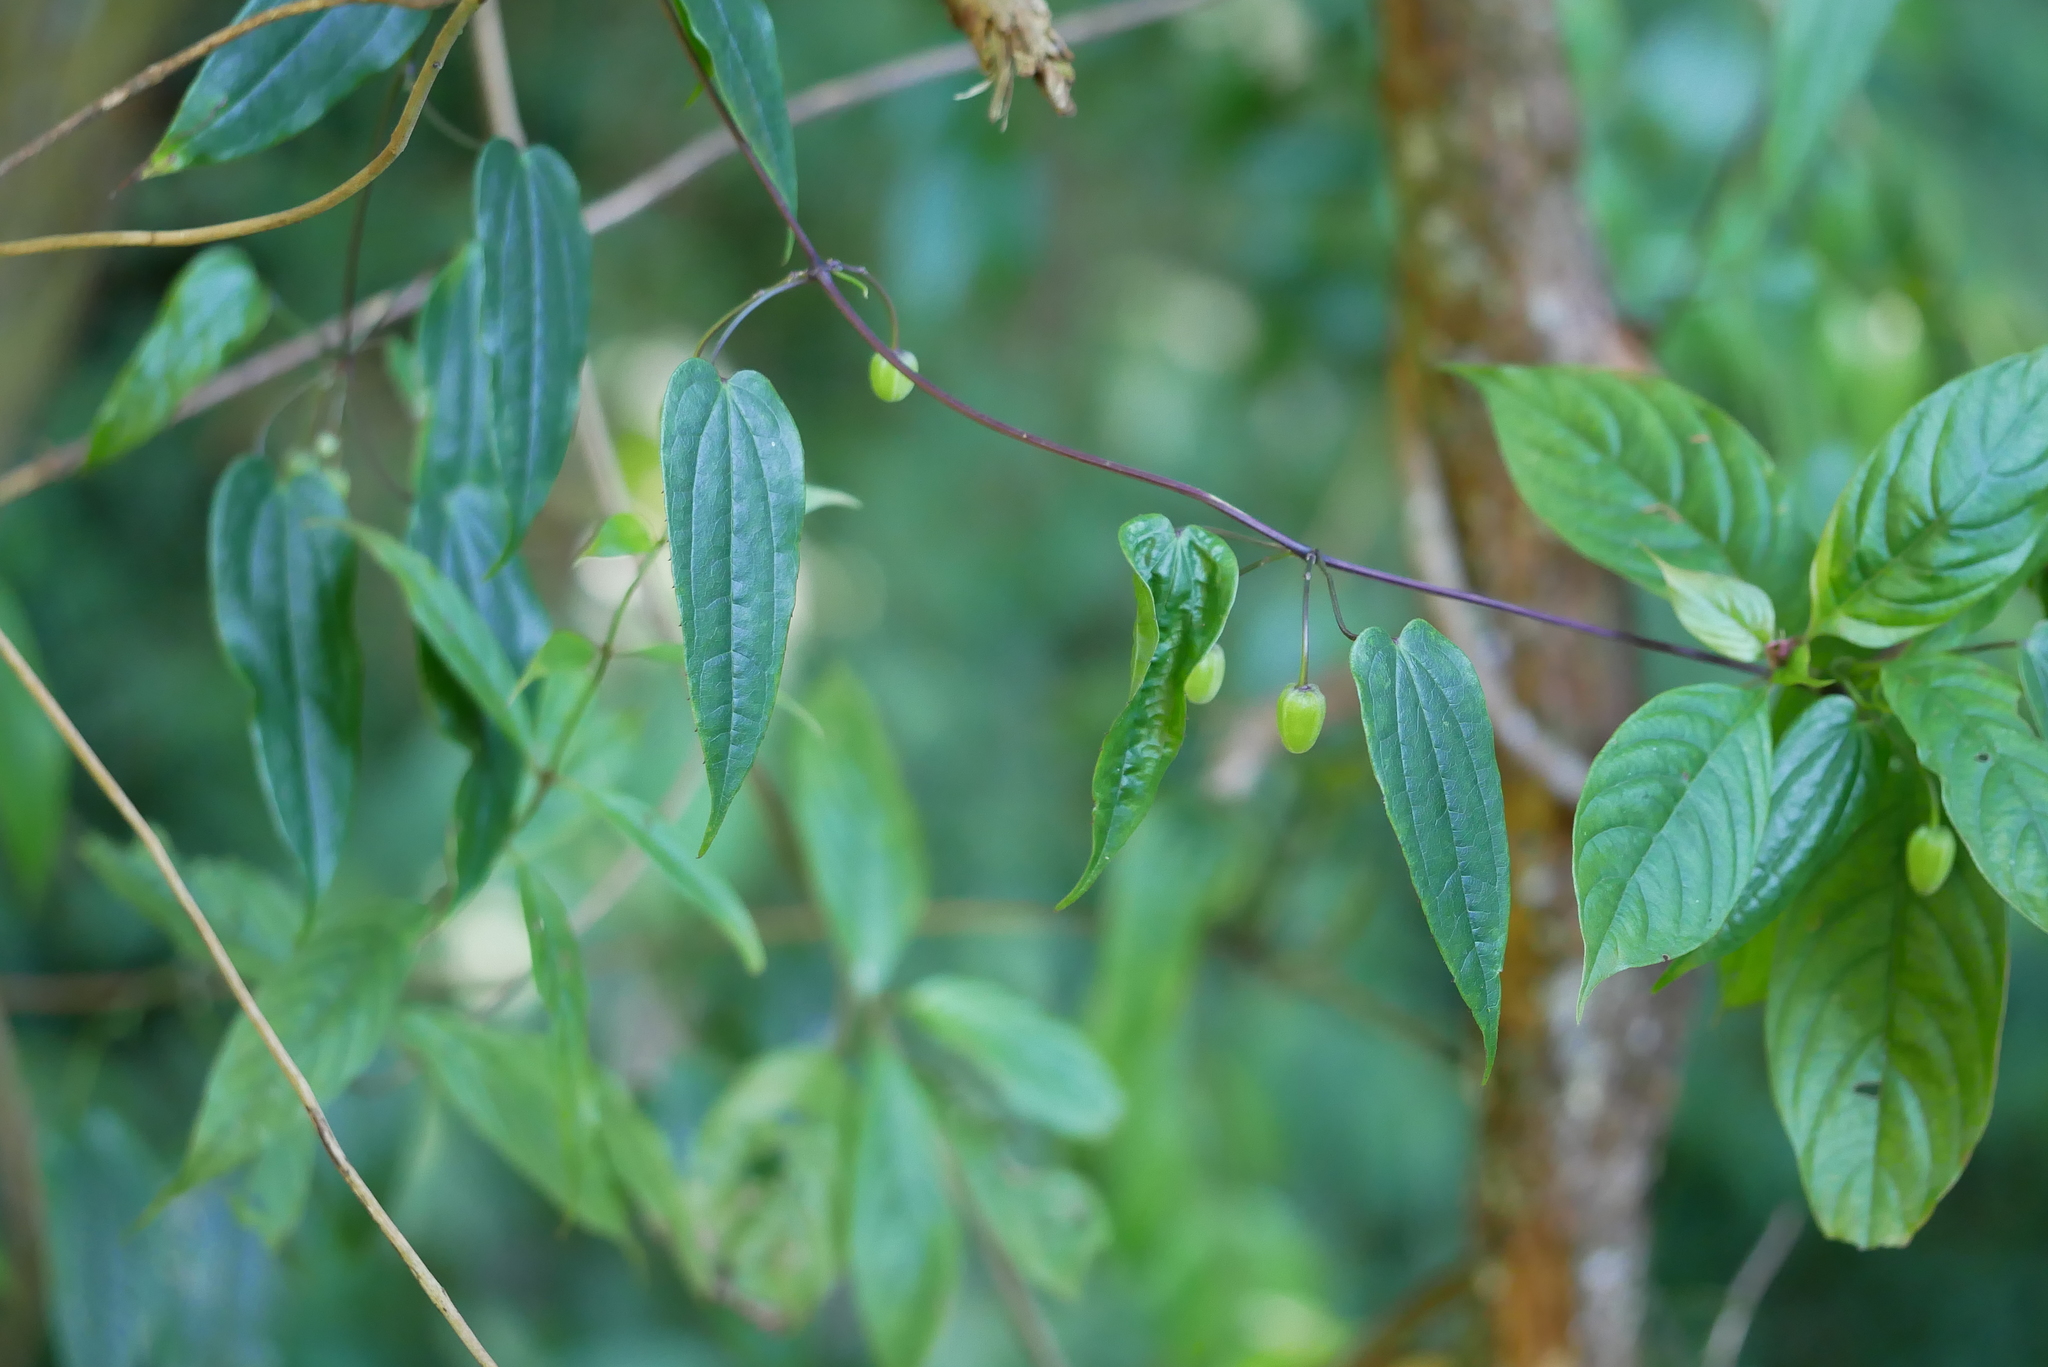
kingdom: Plantae
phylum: Tracheophyta
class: Magnoliopsida
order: Ranunculales
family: Ranunculaceae
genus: Clematis
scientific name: Clematis
